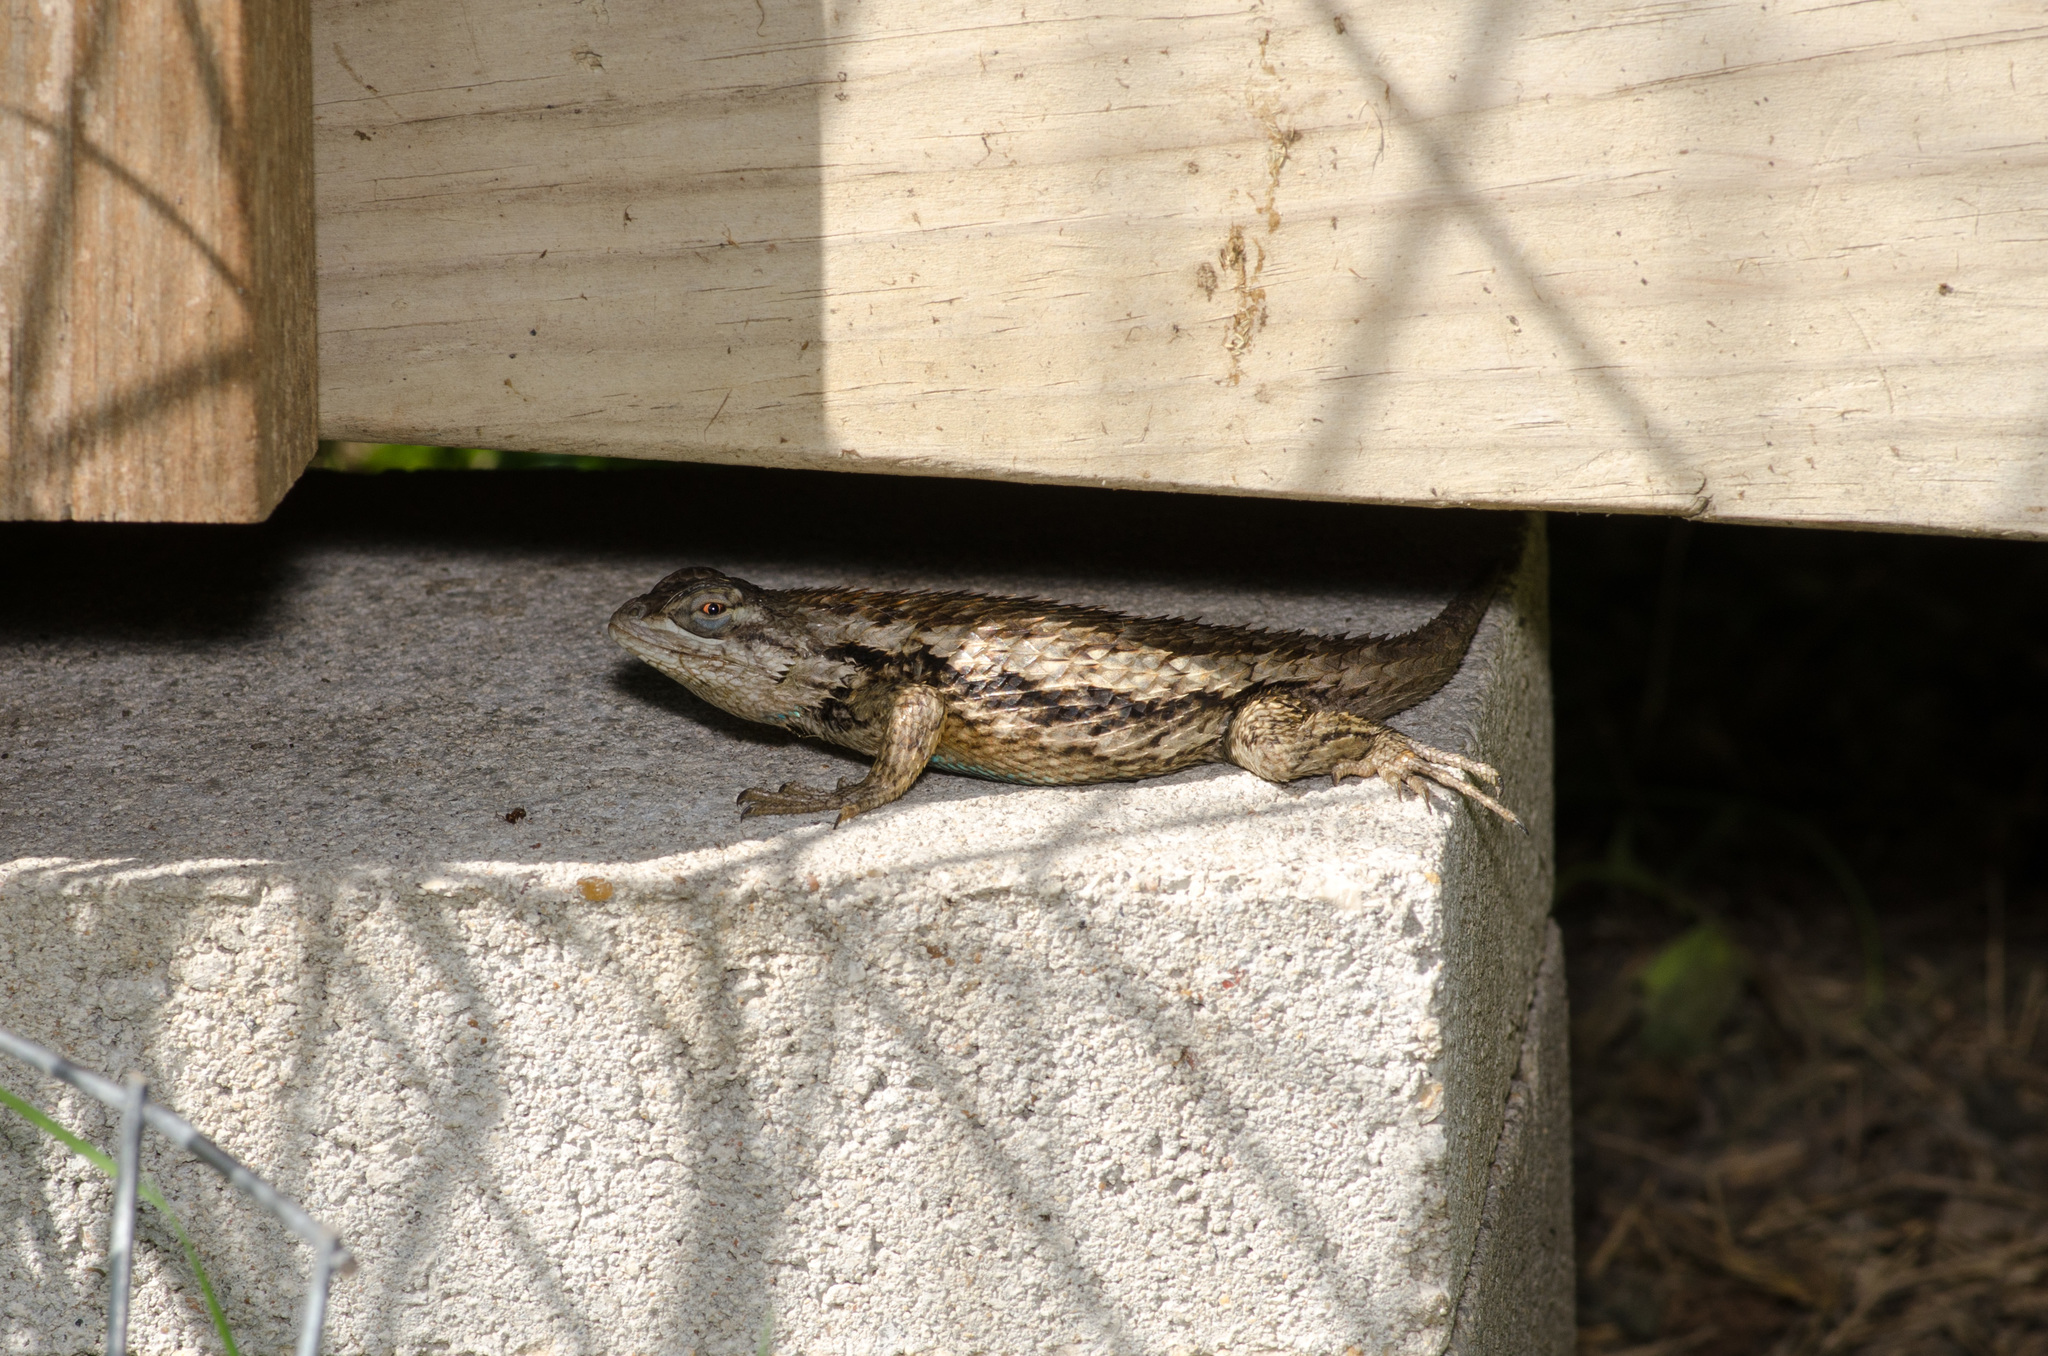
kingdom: Animalia
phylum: Chordata
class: Squamata
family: Phrynosomatidae
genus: Sceloporus
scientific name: Sceloporus olivaceus
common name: Texas spiny lizard
